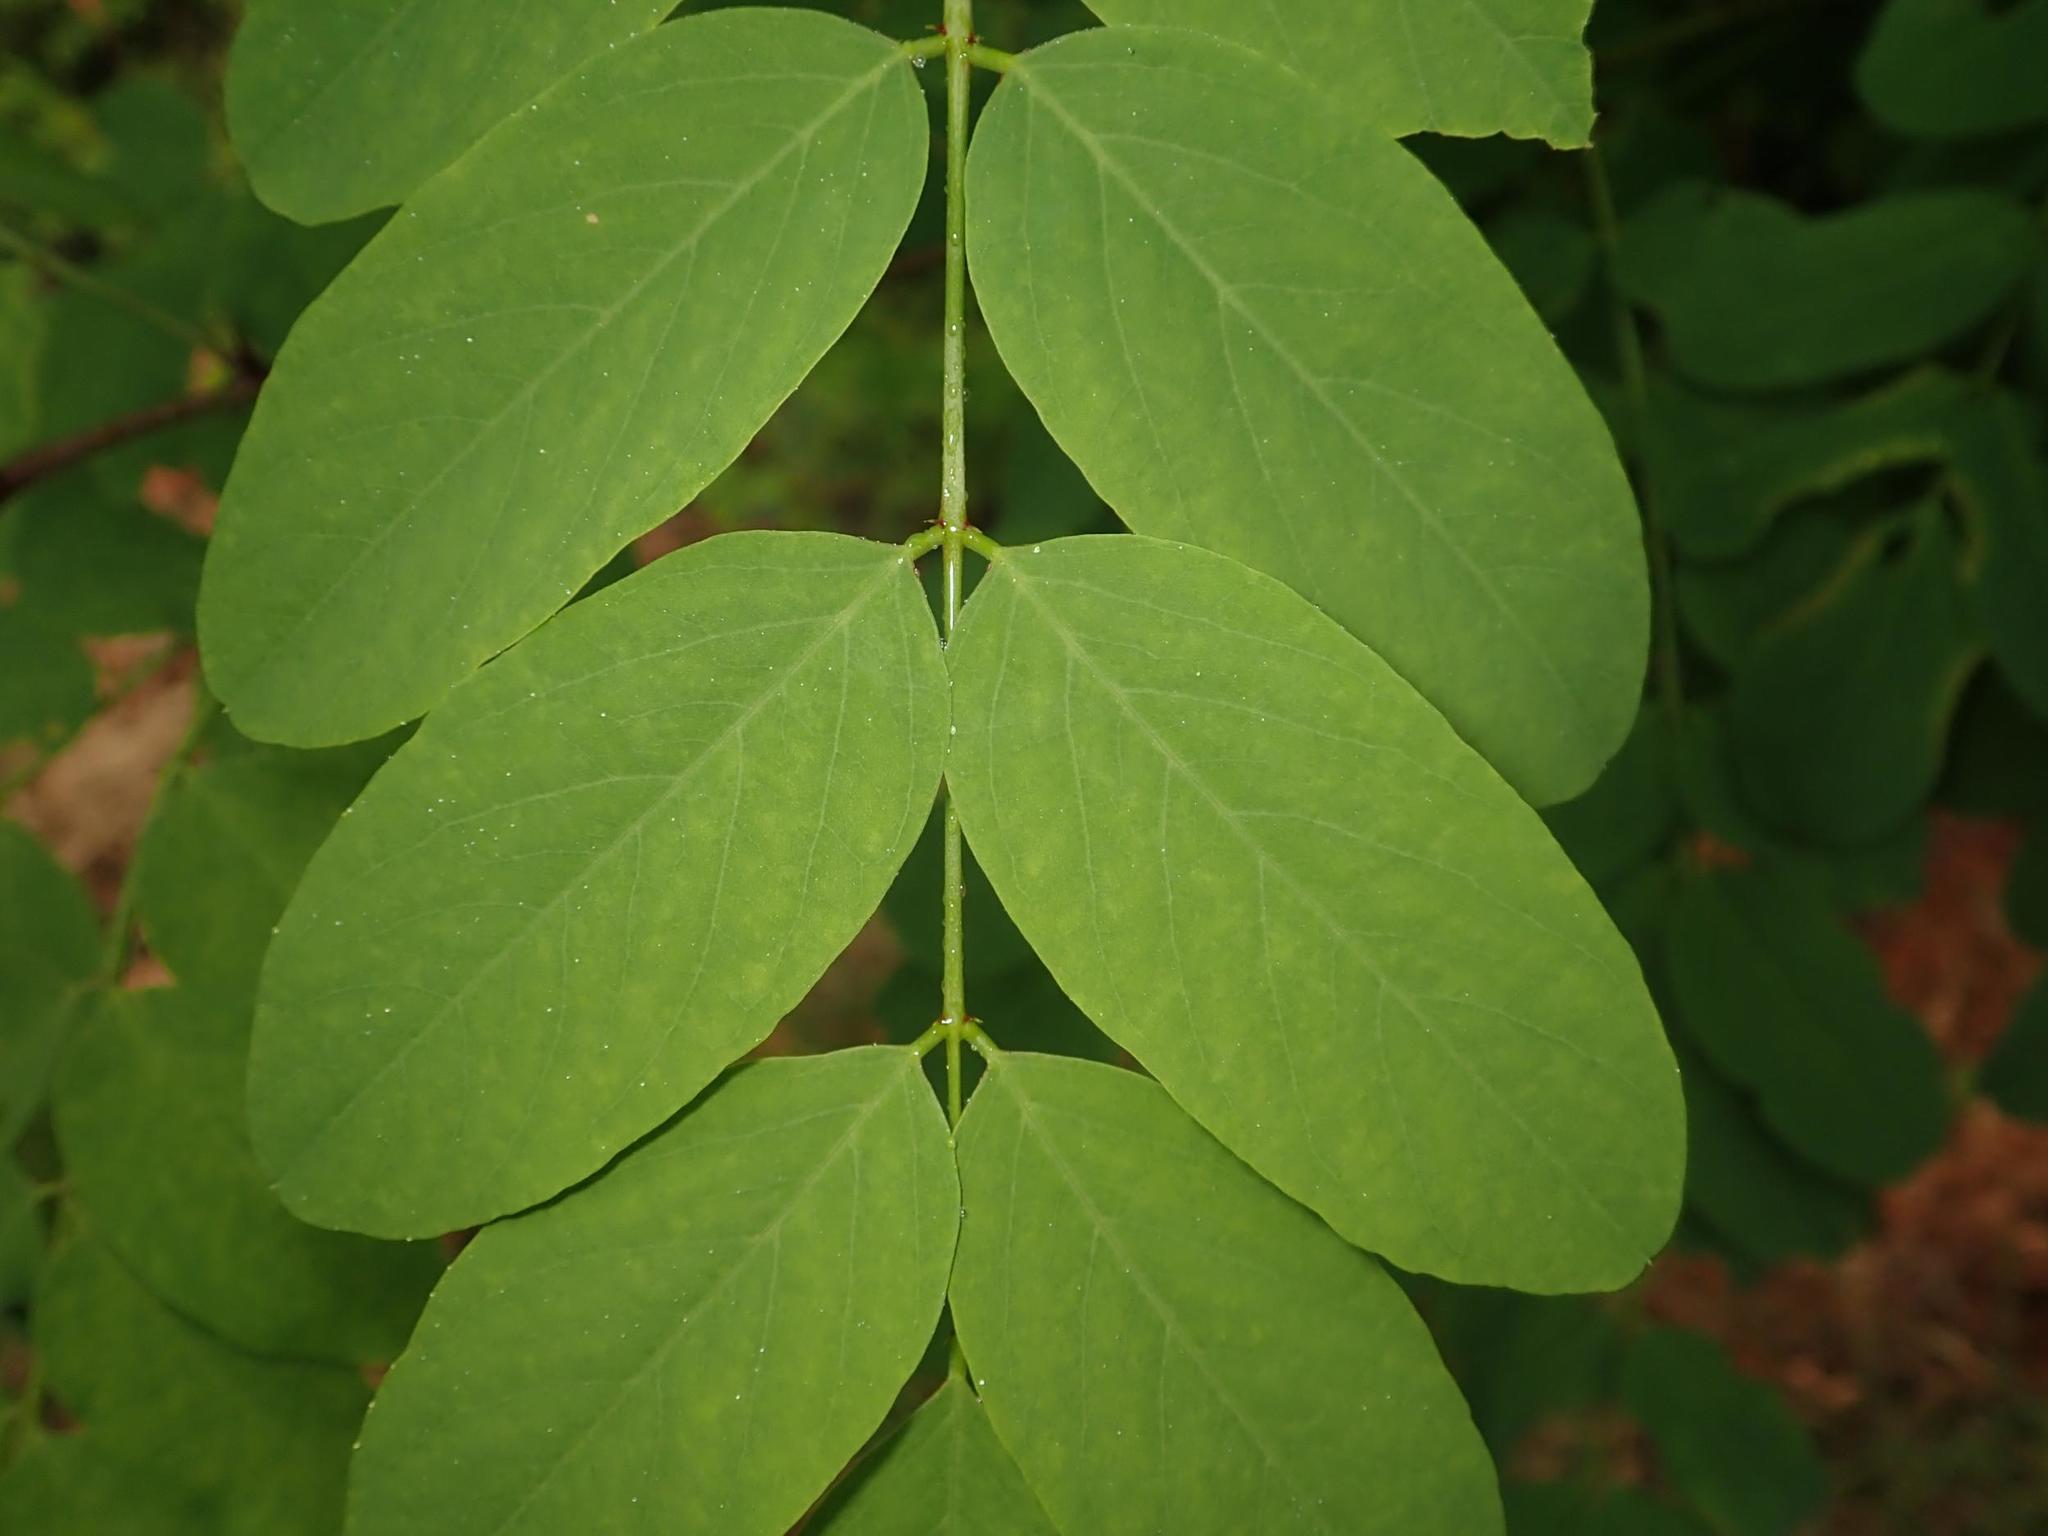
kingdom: Plantae
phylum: Tracheophyta
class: Magnoliopsida
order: Fabales
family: Fabaceae
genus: Robinia
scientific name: Robinia pseudoacacia
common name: Black locust
